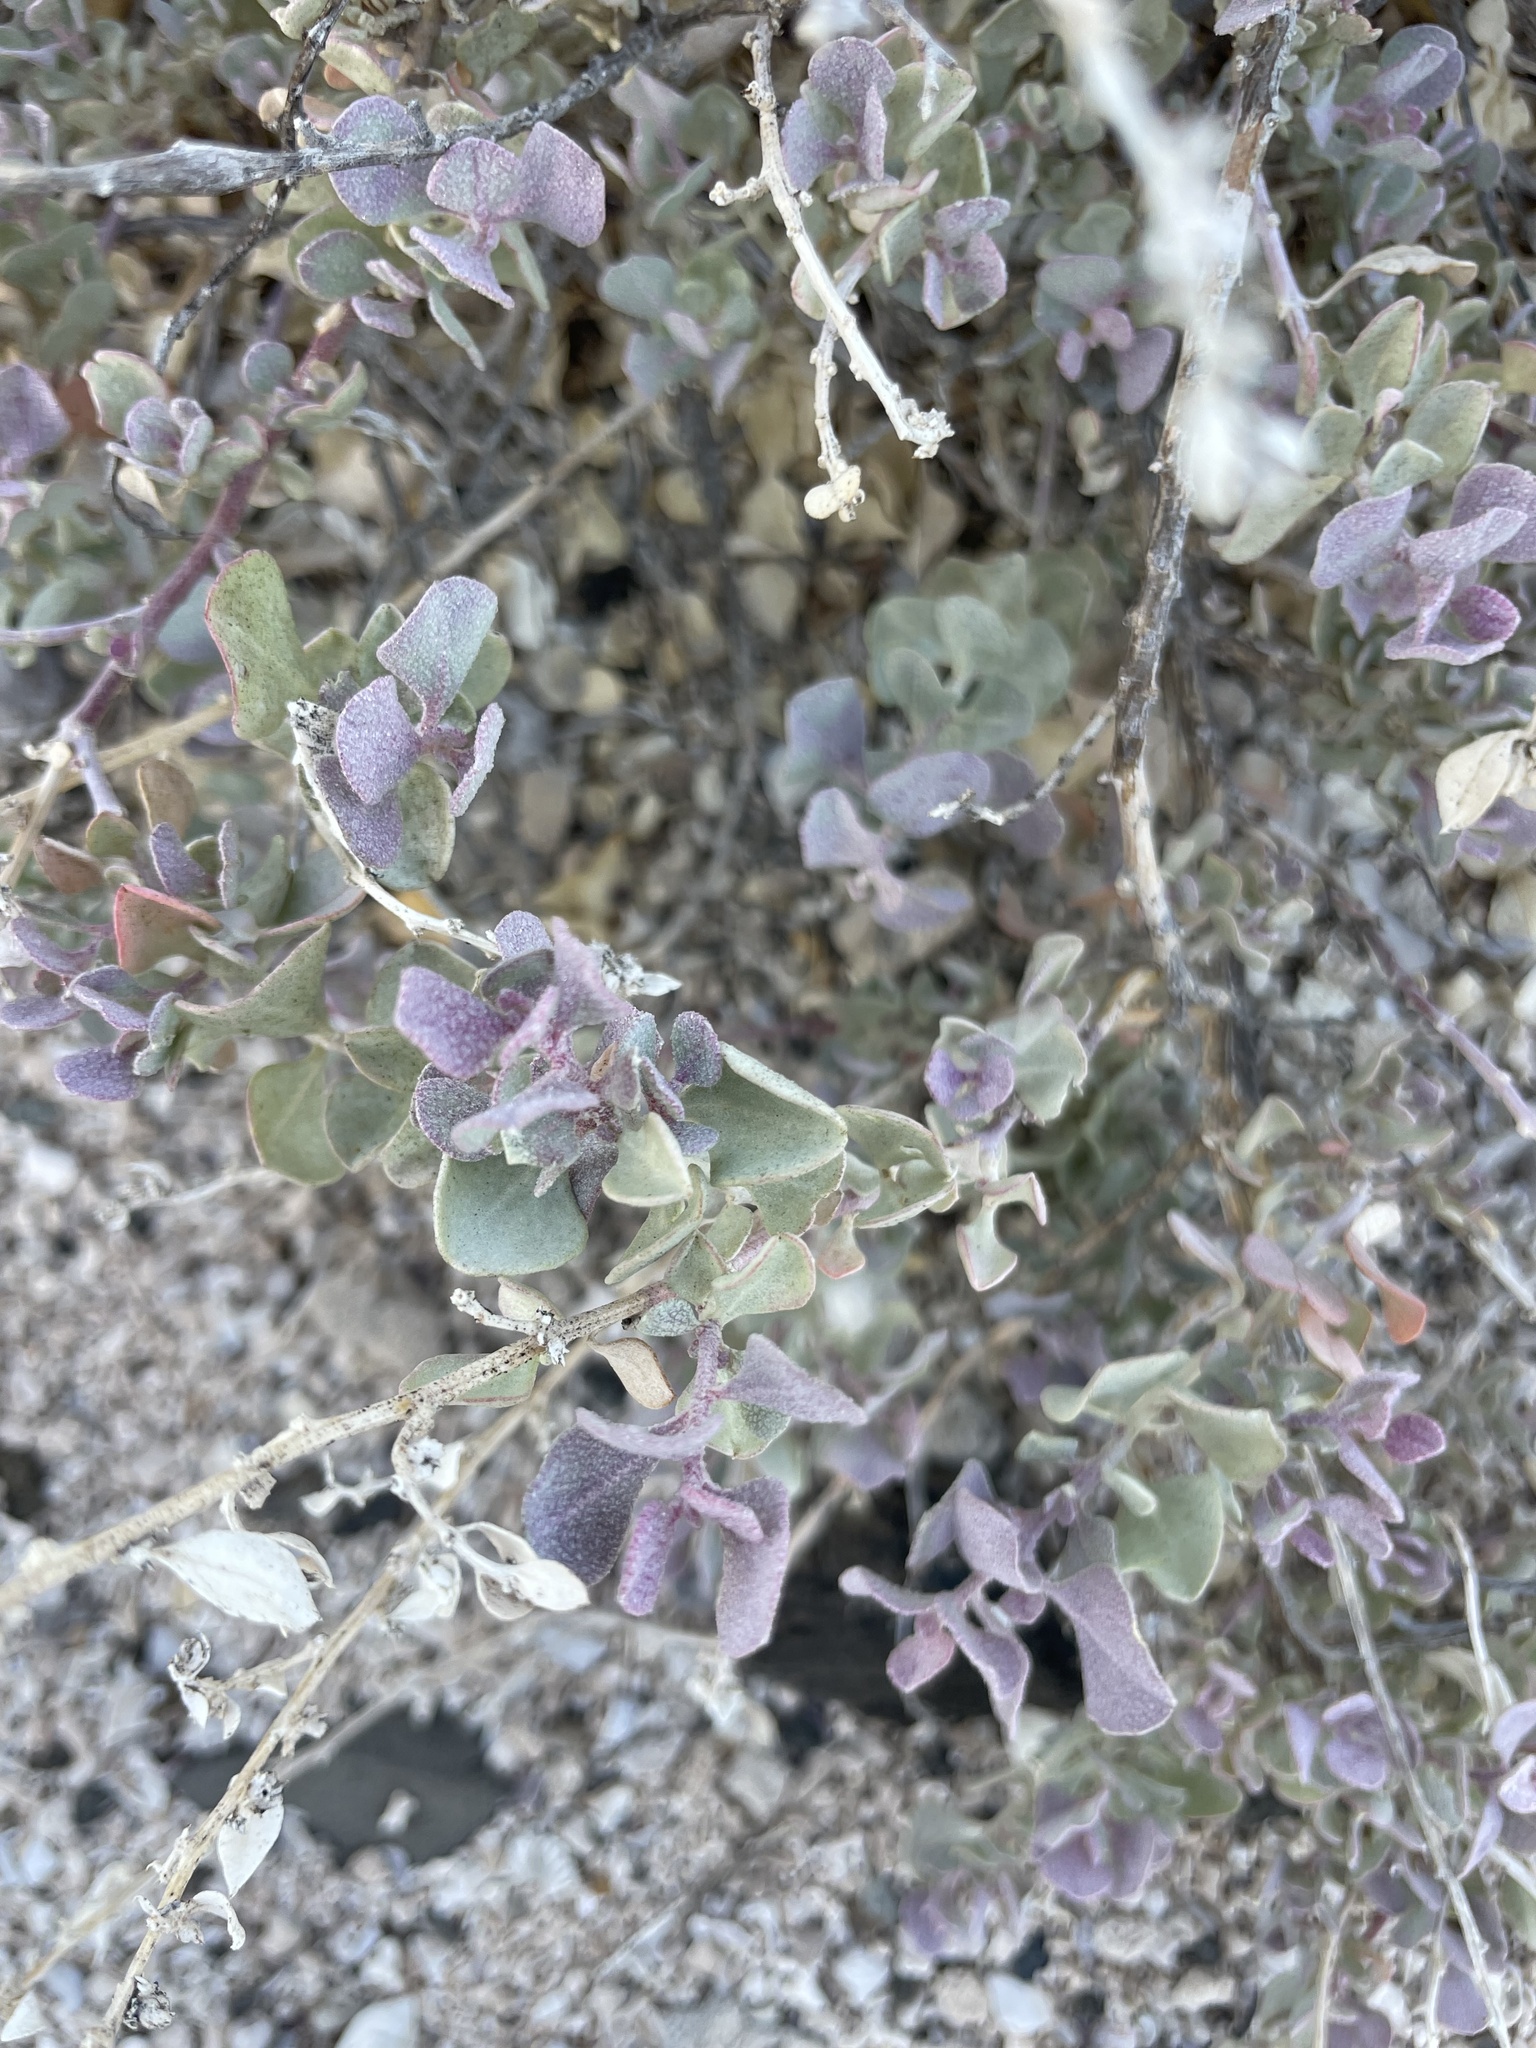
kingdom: Plantae
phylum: Tracheophyta
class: Magnoliopsida
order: Caryophyllales
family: Amaranthaceae
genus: Atriplex
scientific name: Atriplex barclayana
